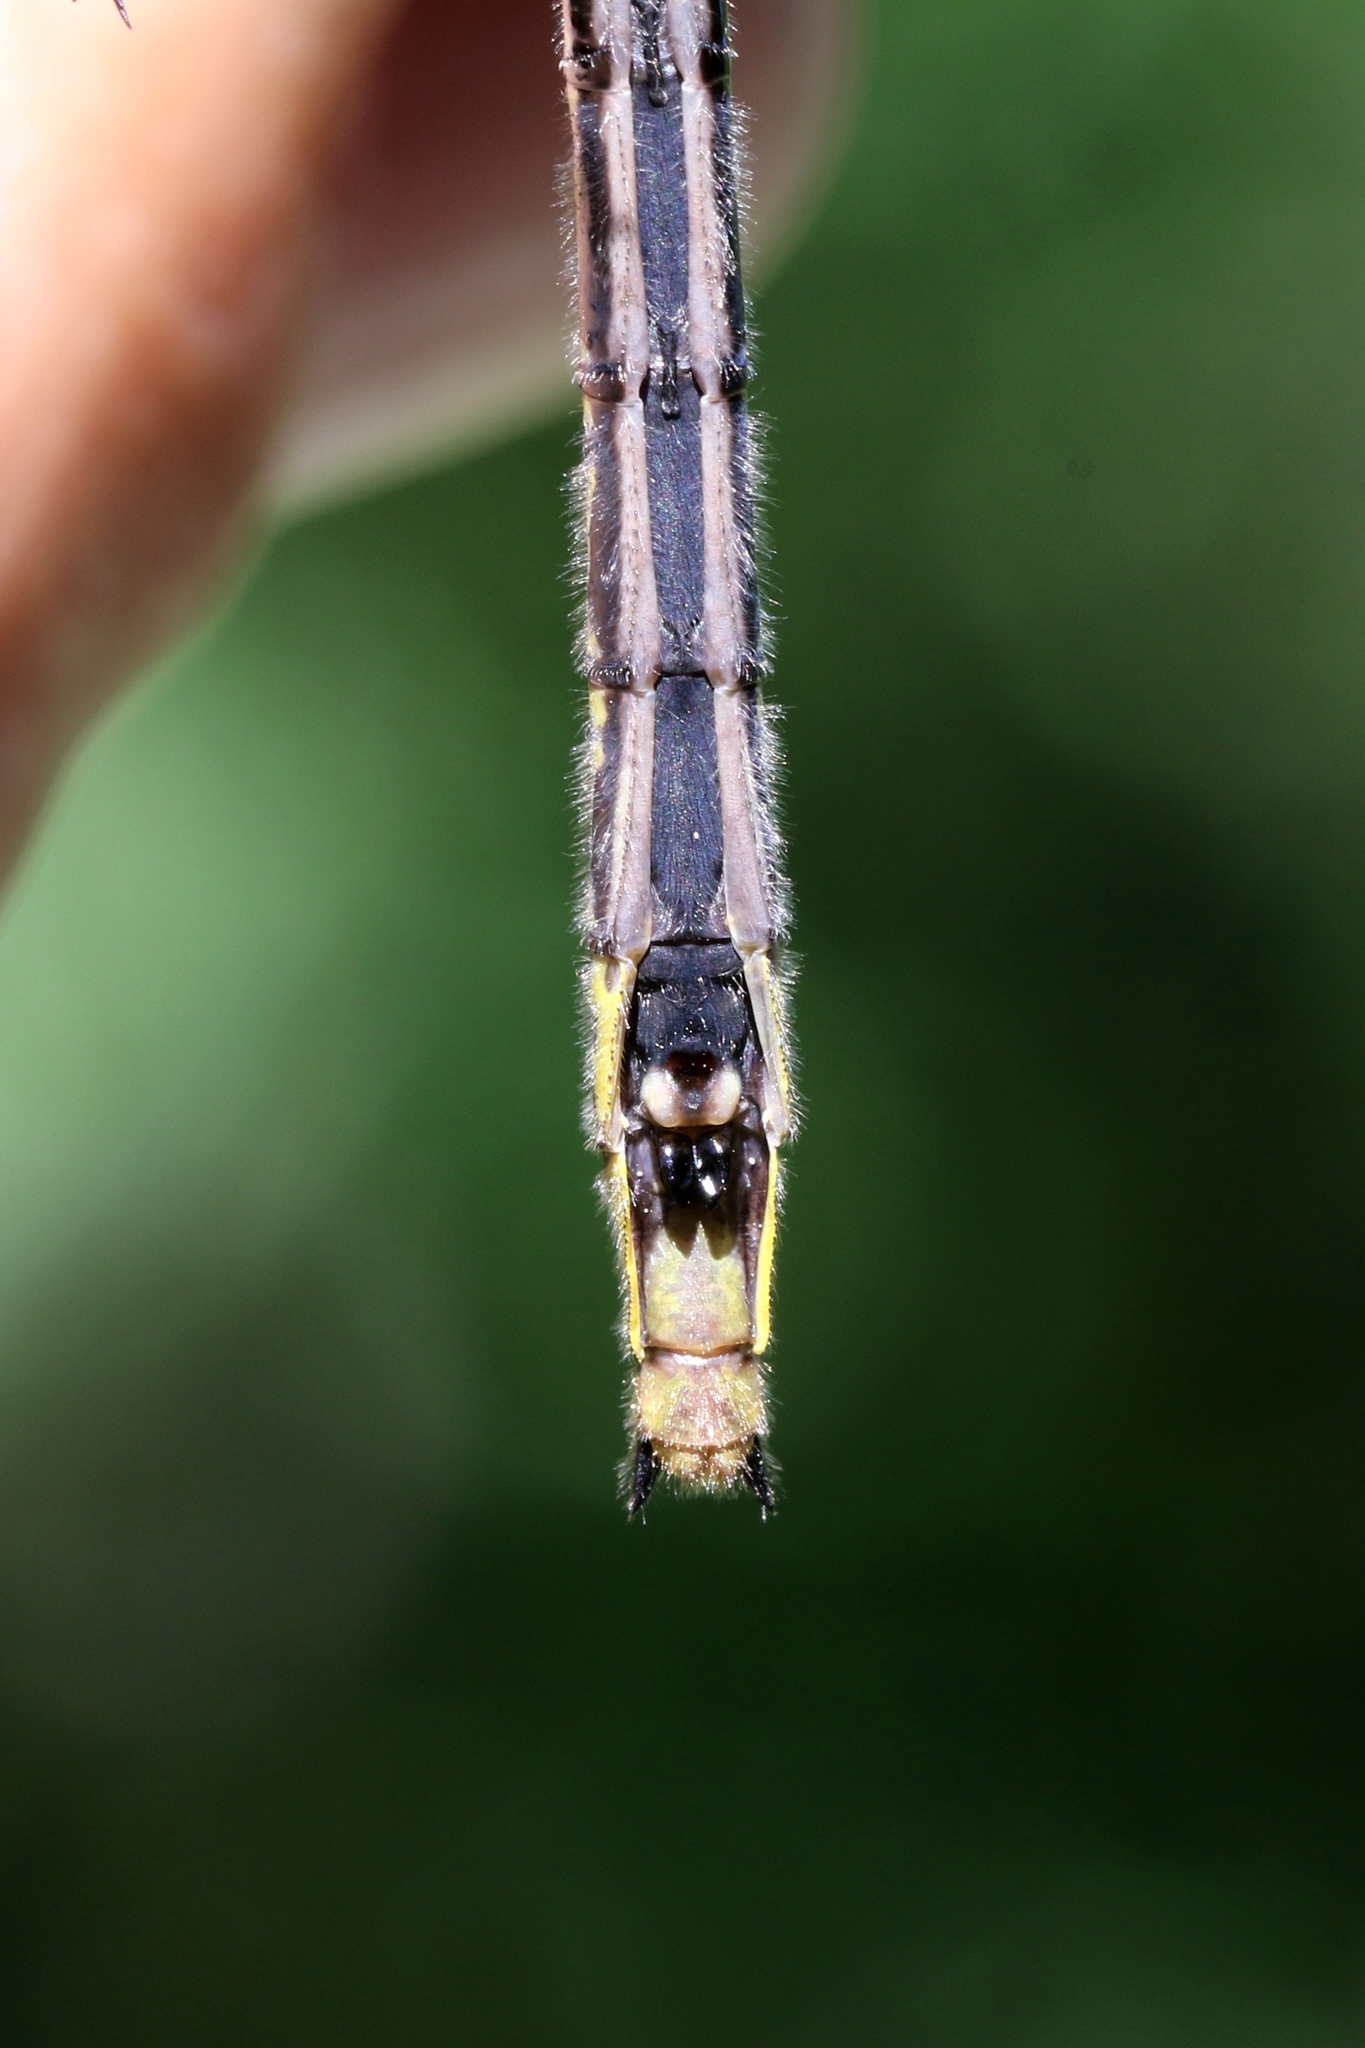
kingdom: Animalia
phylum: Arthropoda
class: Insecta
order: Odonata
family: Gomphidae
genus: Phanogomphus
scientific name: Phanogomphus descriptus
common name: Harpoon clubtail
